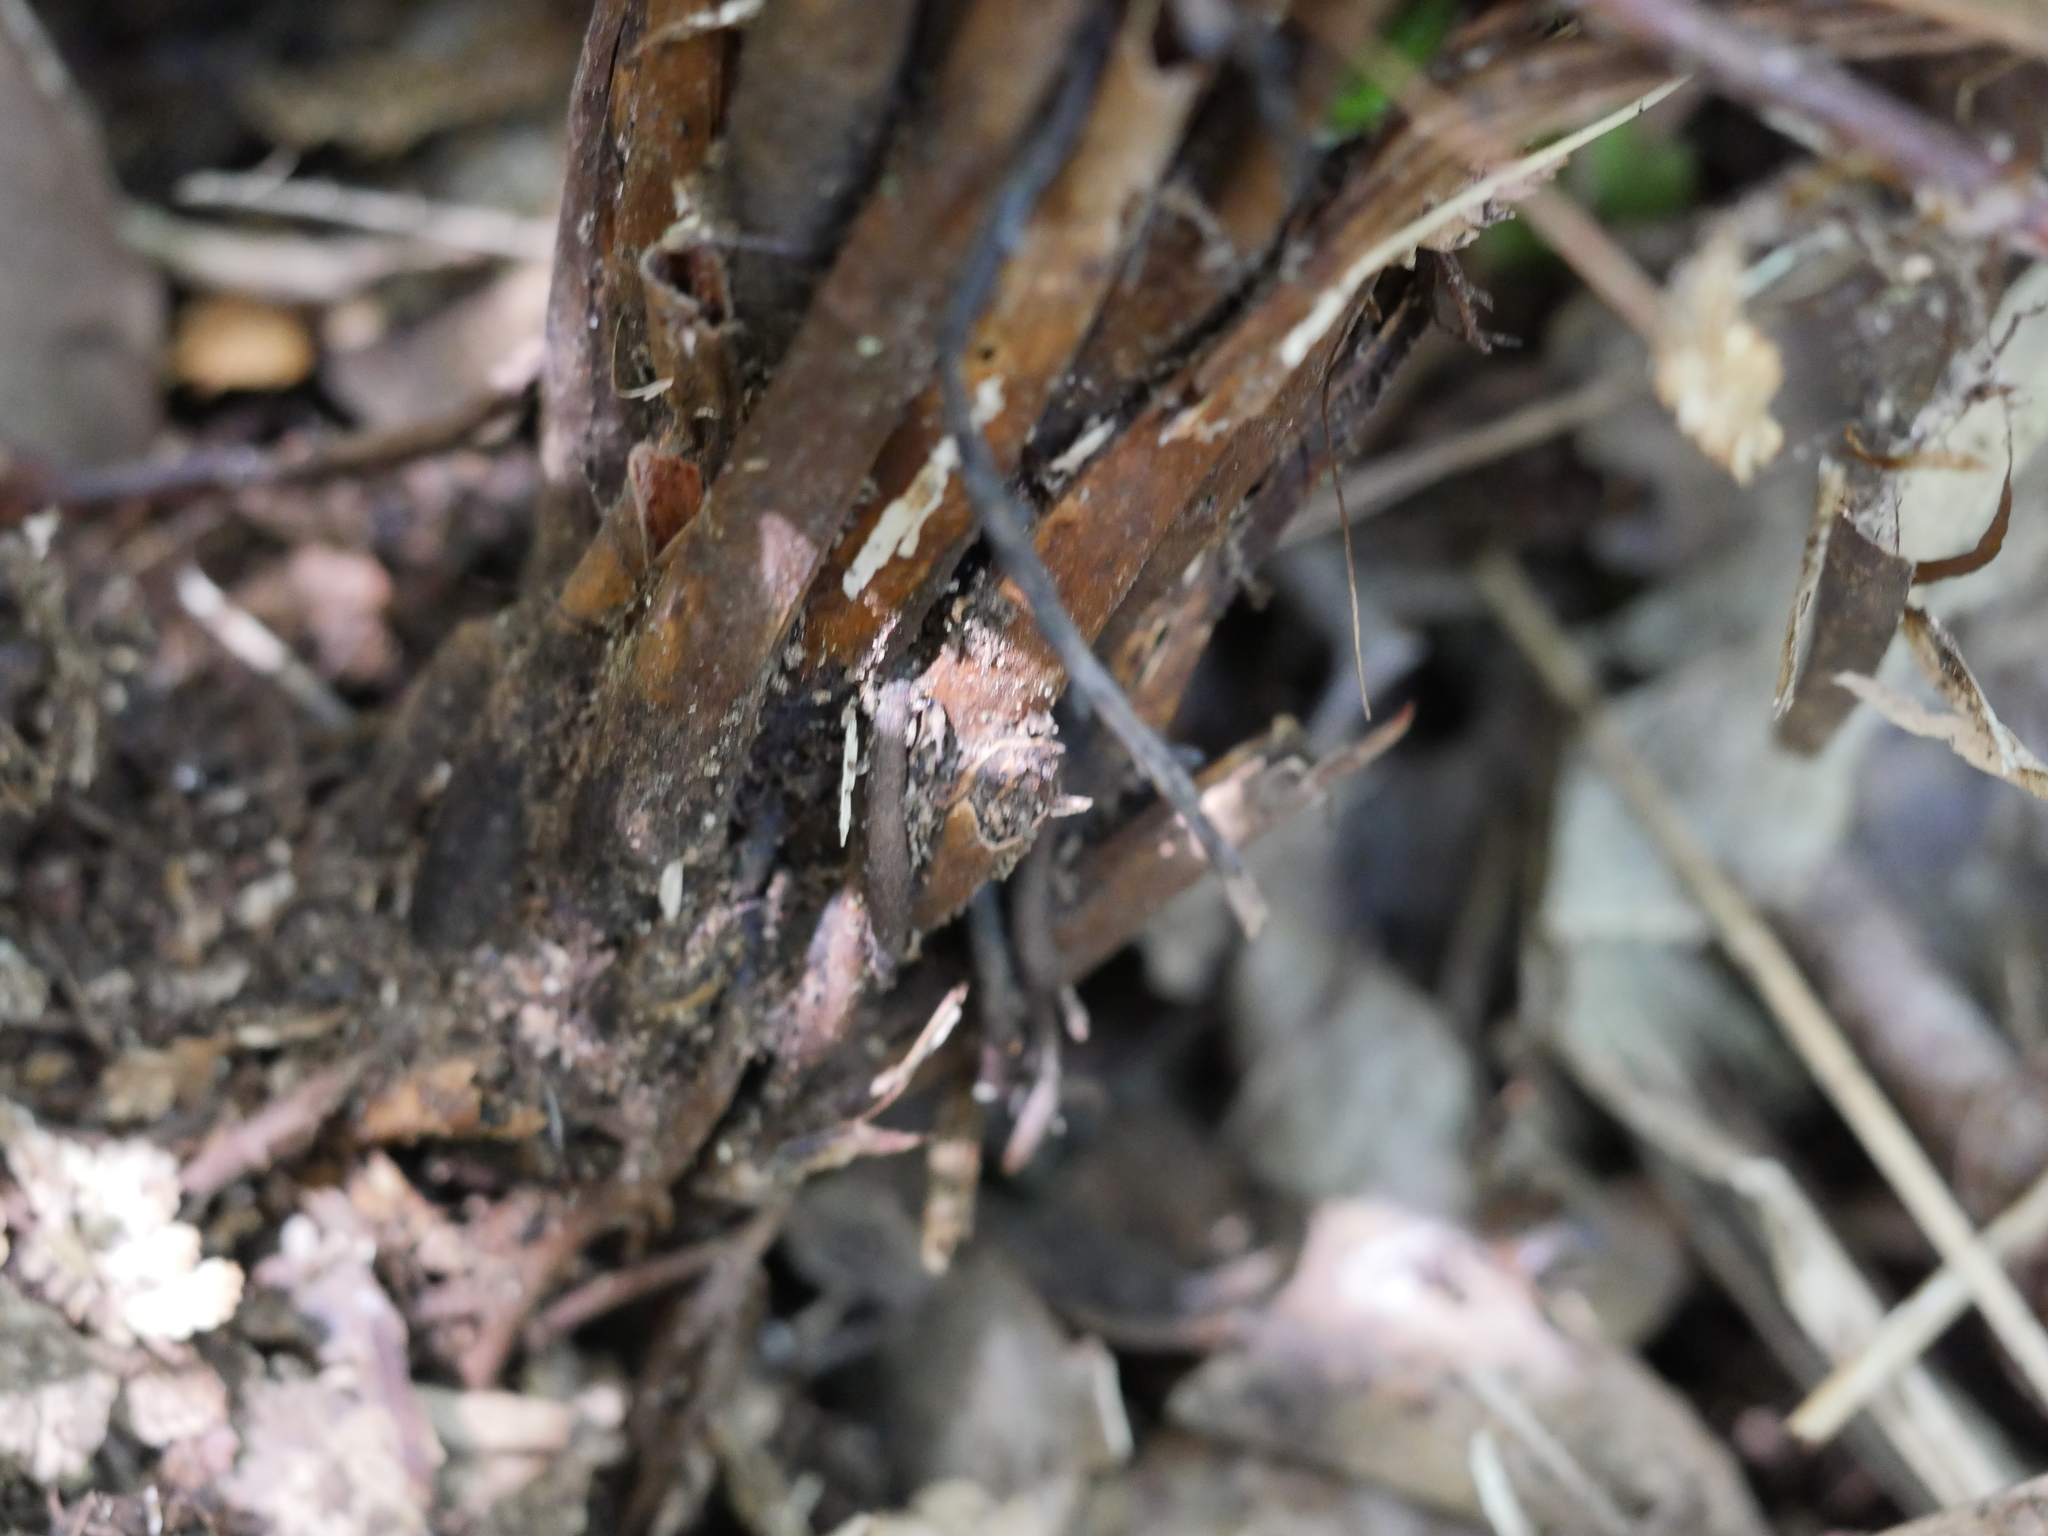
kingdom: Plantae
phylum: Tracheophyta
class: Polypodiopsida
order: Polypodiales
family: Thelypteridaceae
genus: Pakau
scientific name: Pakau pennigera
